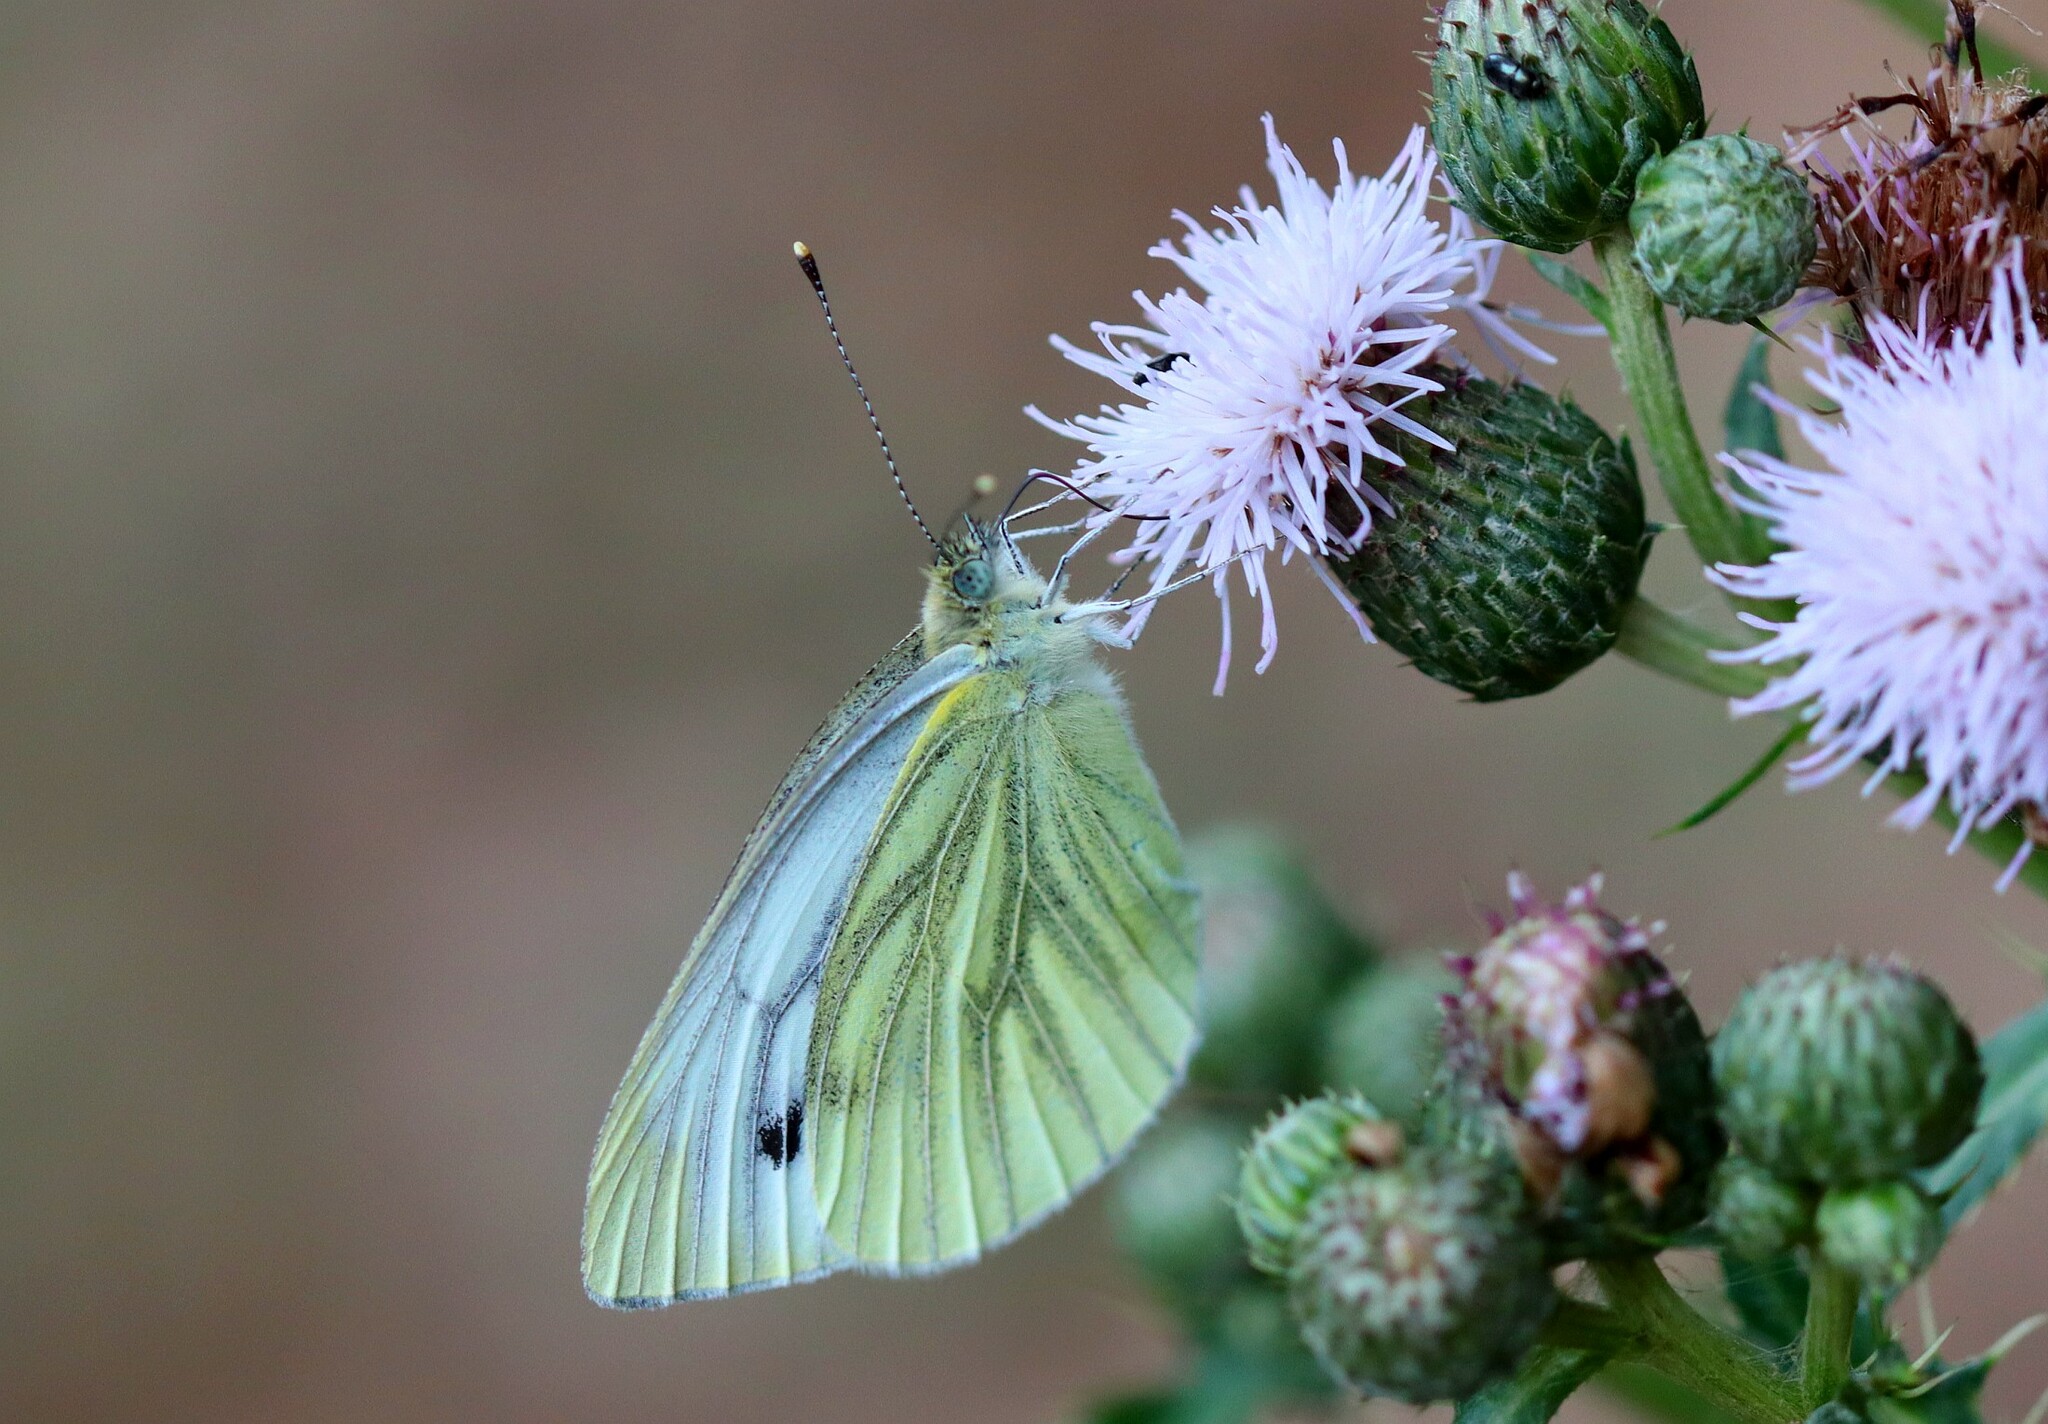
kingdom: Animalia
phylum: Arthropoda
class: Insecta
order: Lepidoptera
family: Pieridae
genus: Pieris
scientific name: Pieris napi
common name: Green-veined white
